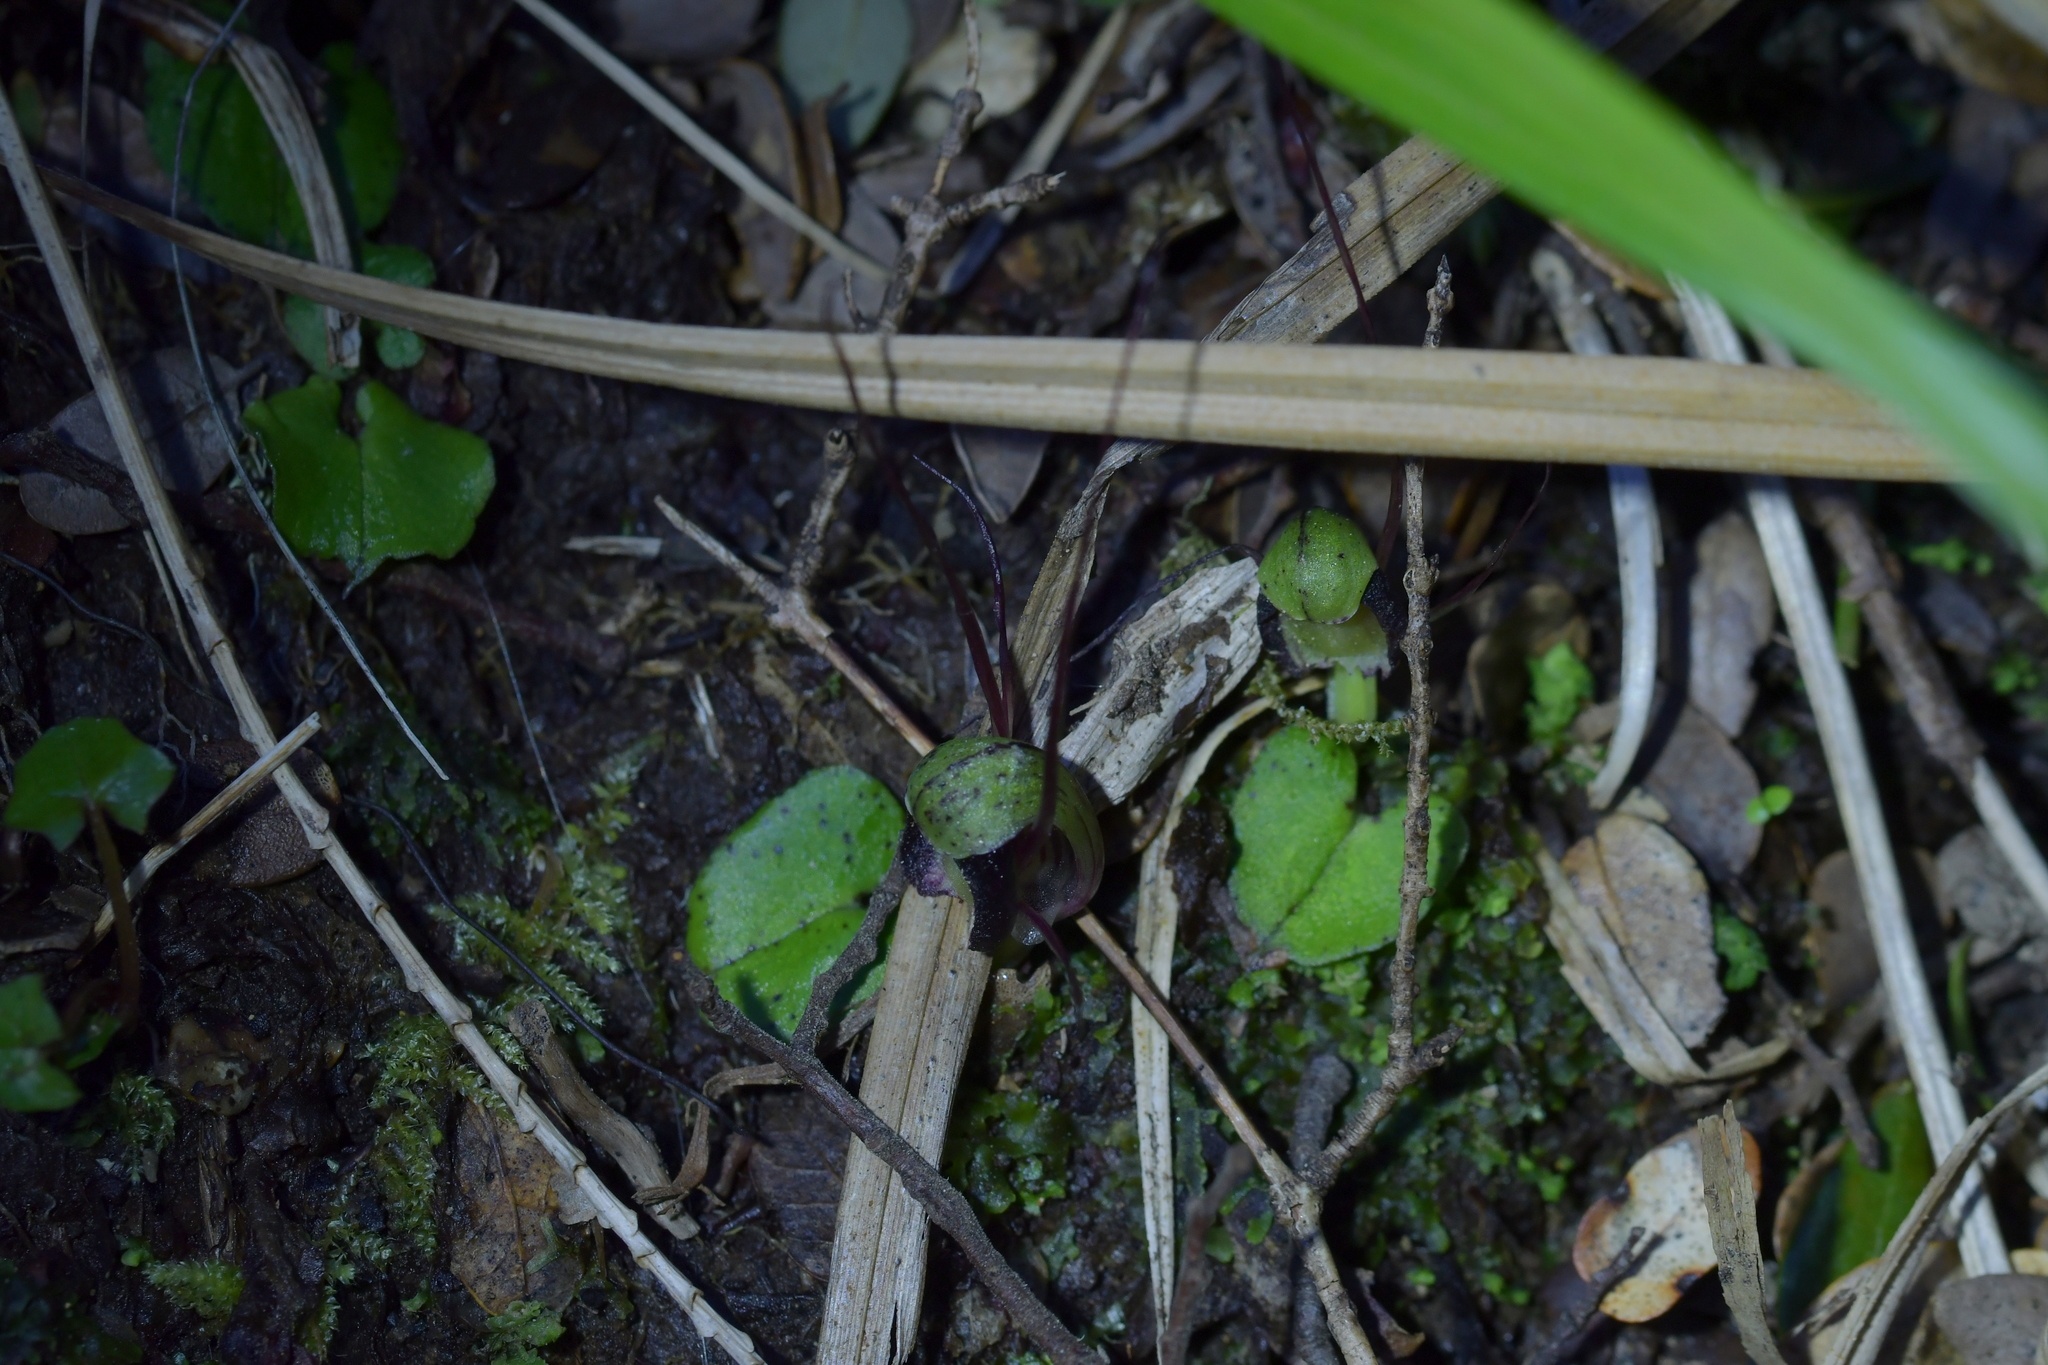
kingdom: Plantae
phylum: Tracheophyta
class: Liliopsida
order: Asparagales
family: Orchidaceae
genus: Corybas
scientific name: Corybas vitreus
